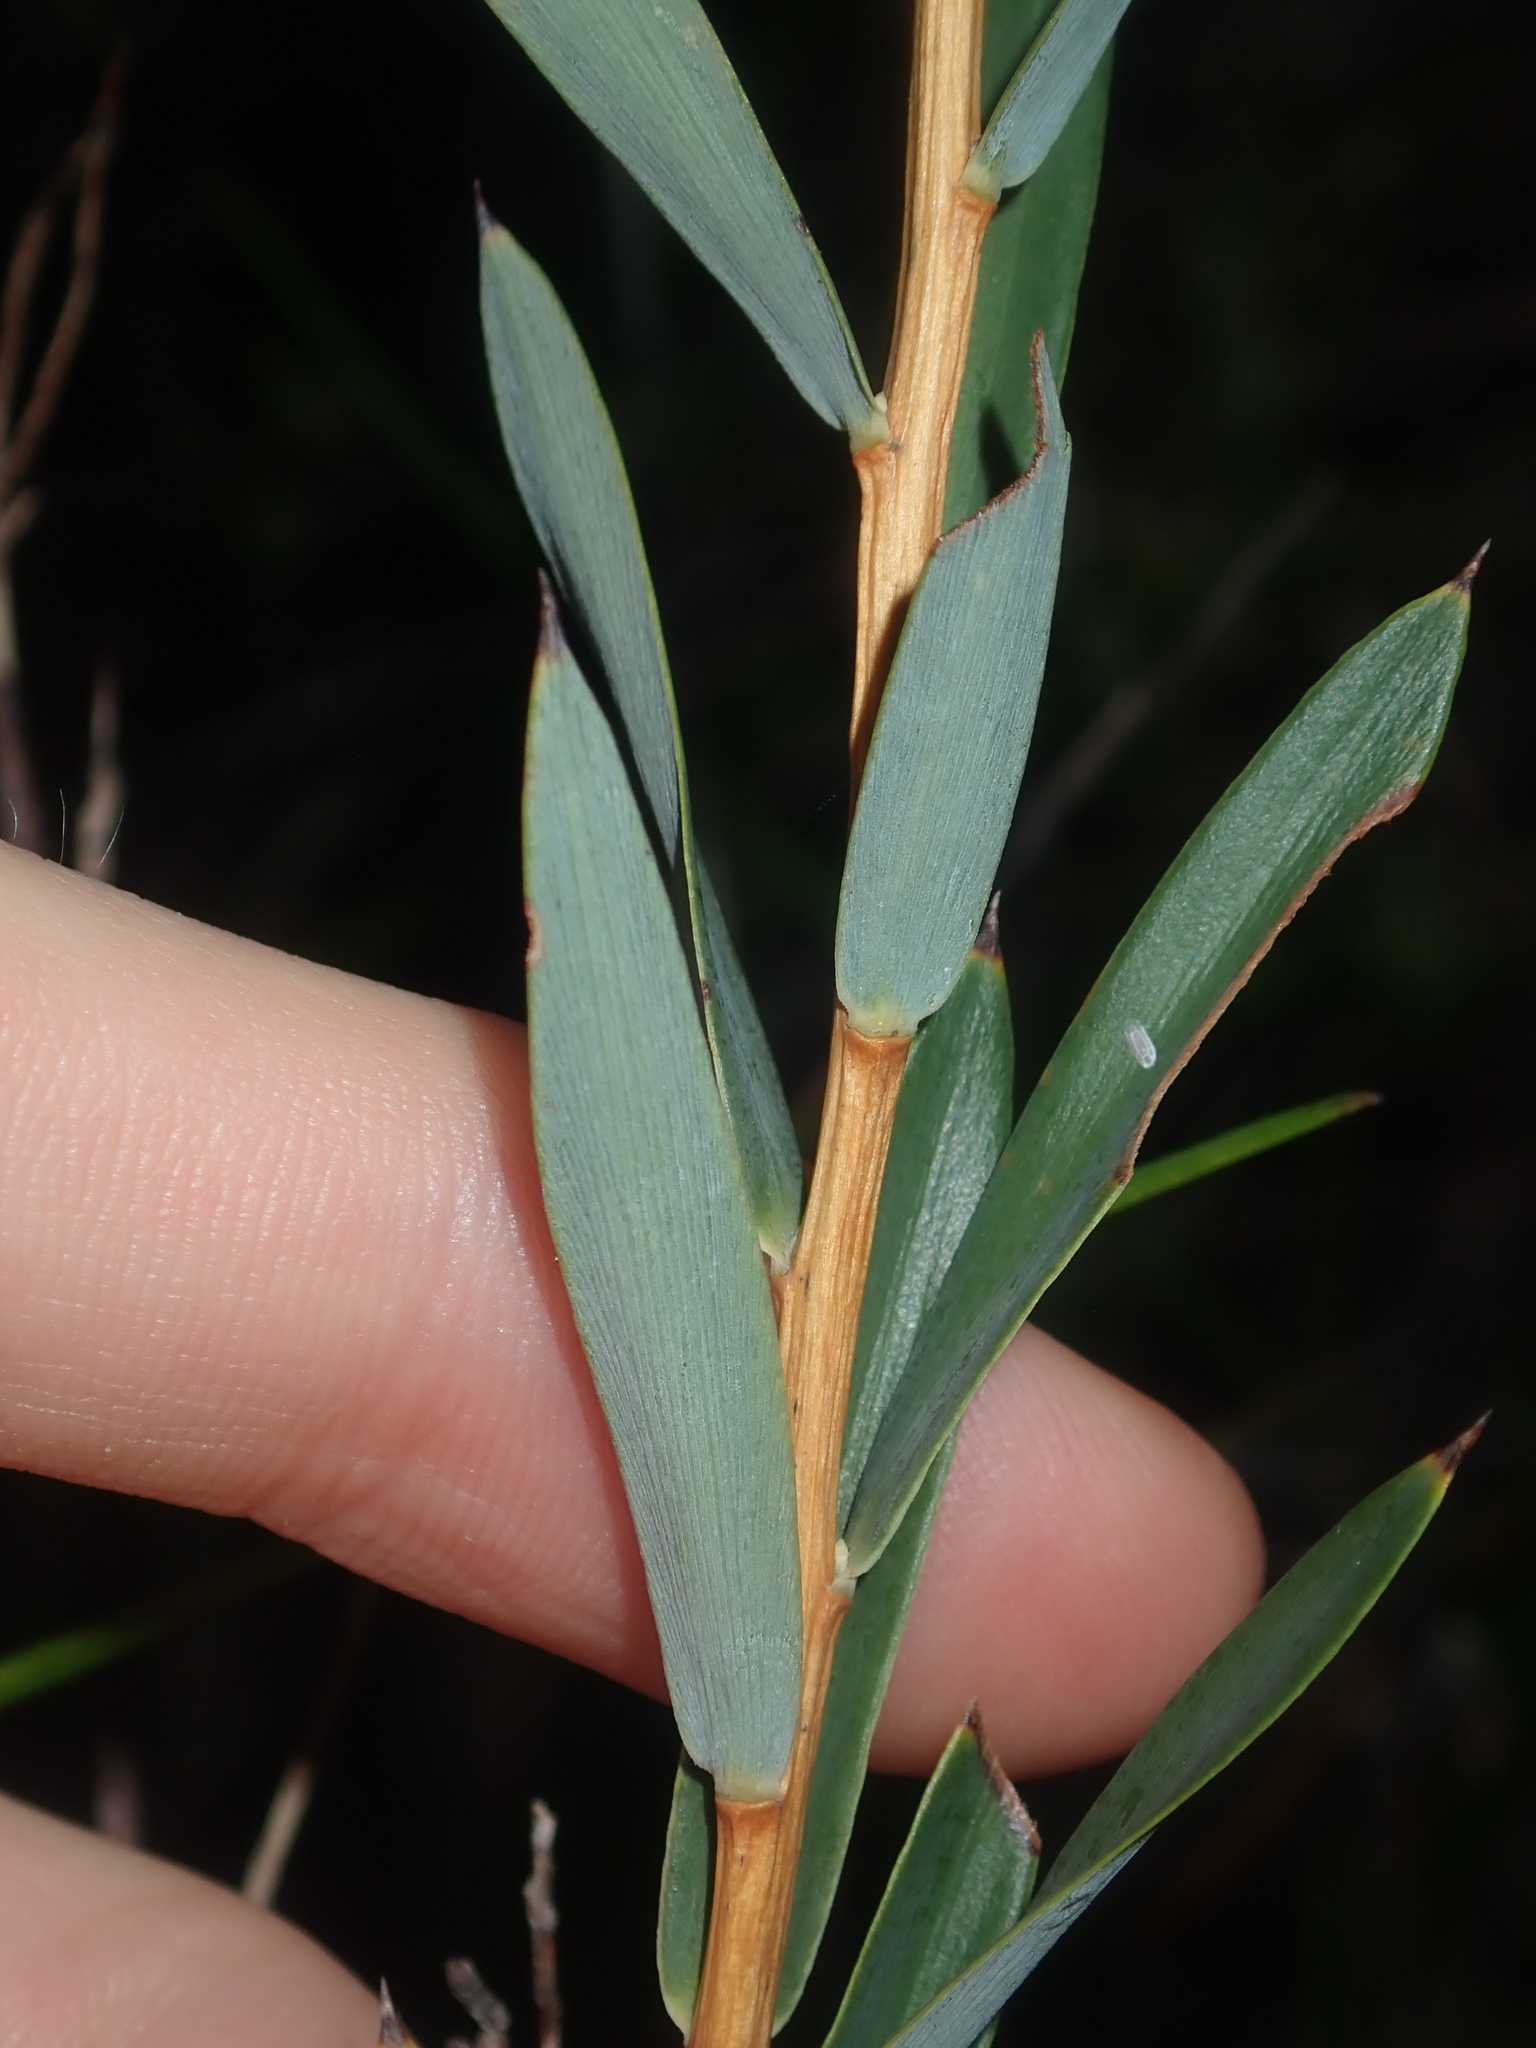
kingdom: Plantae
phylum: Tracheophyta
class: Magnoliopsida
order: Ericales
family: Ericaceae
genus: Conostephium
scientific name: Conostephium pendulum
